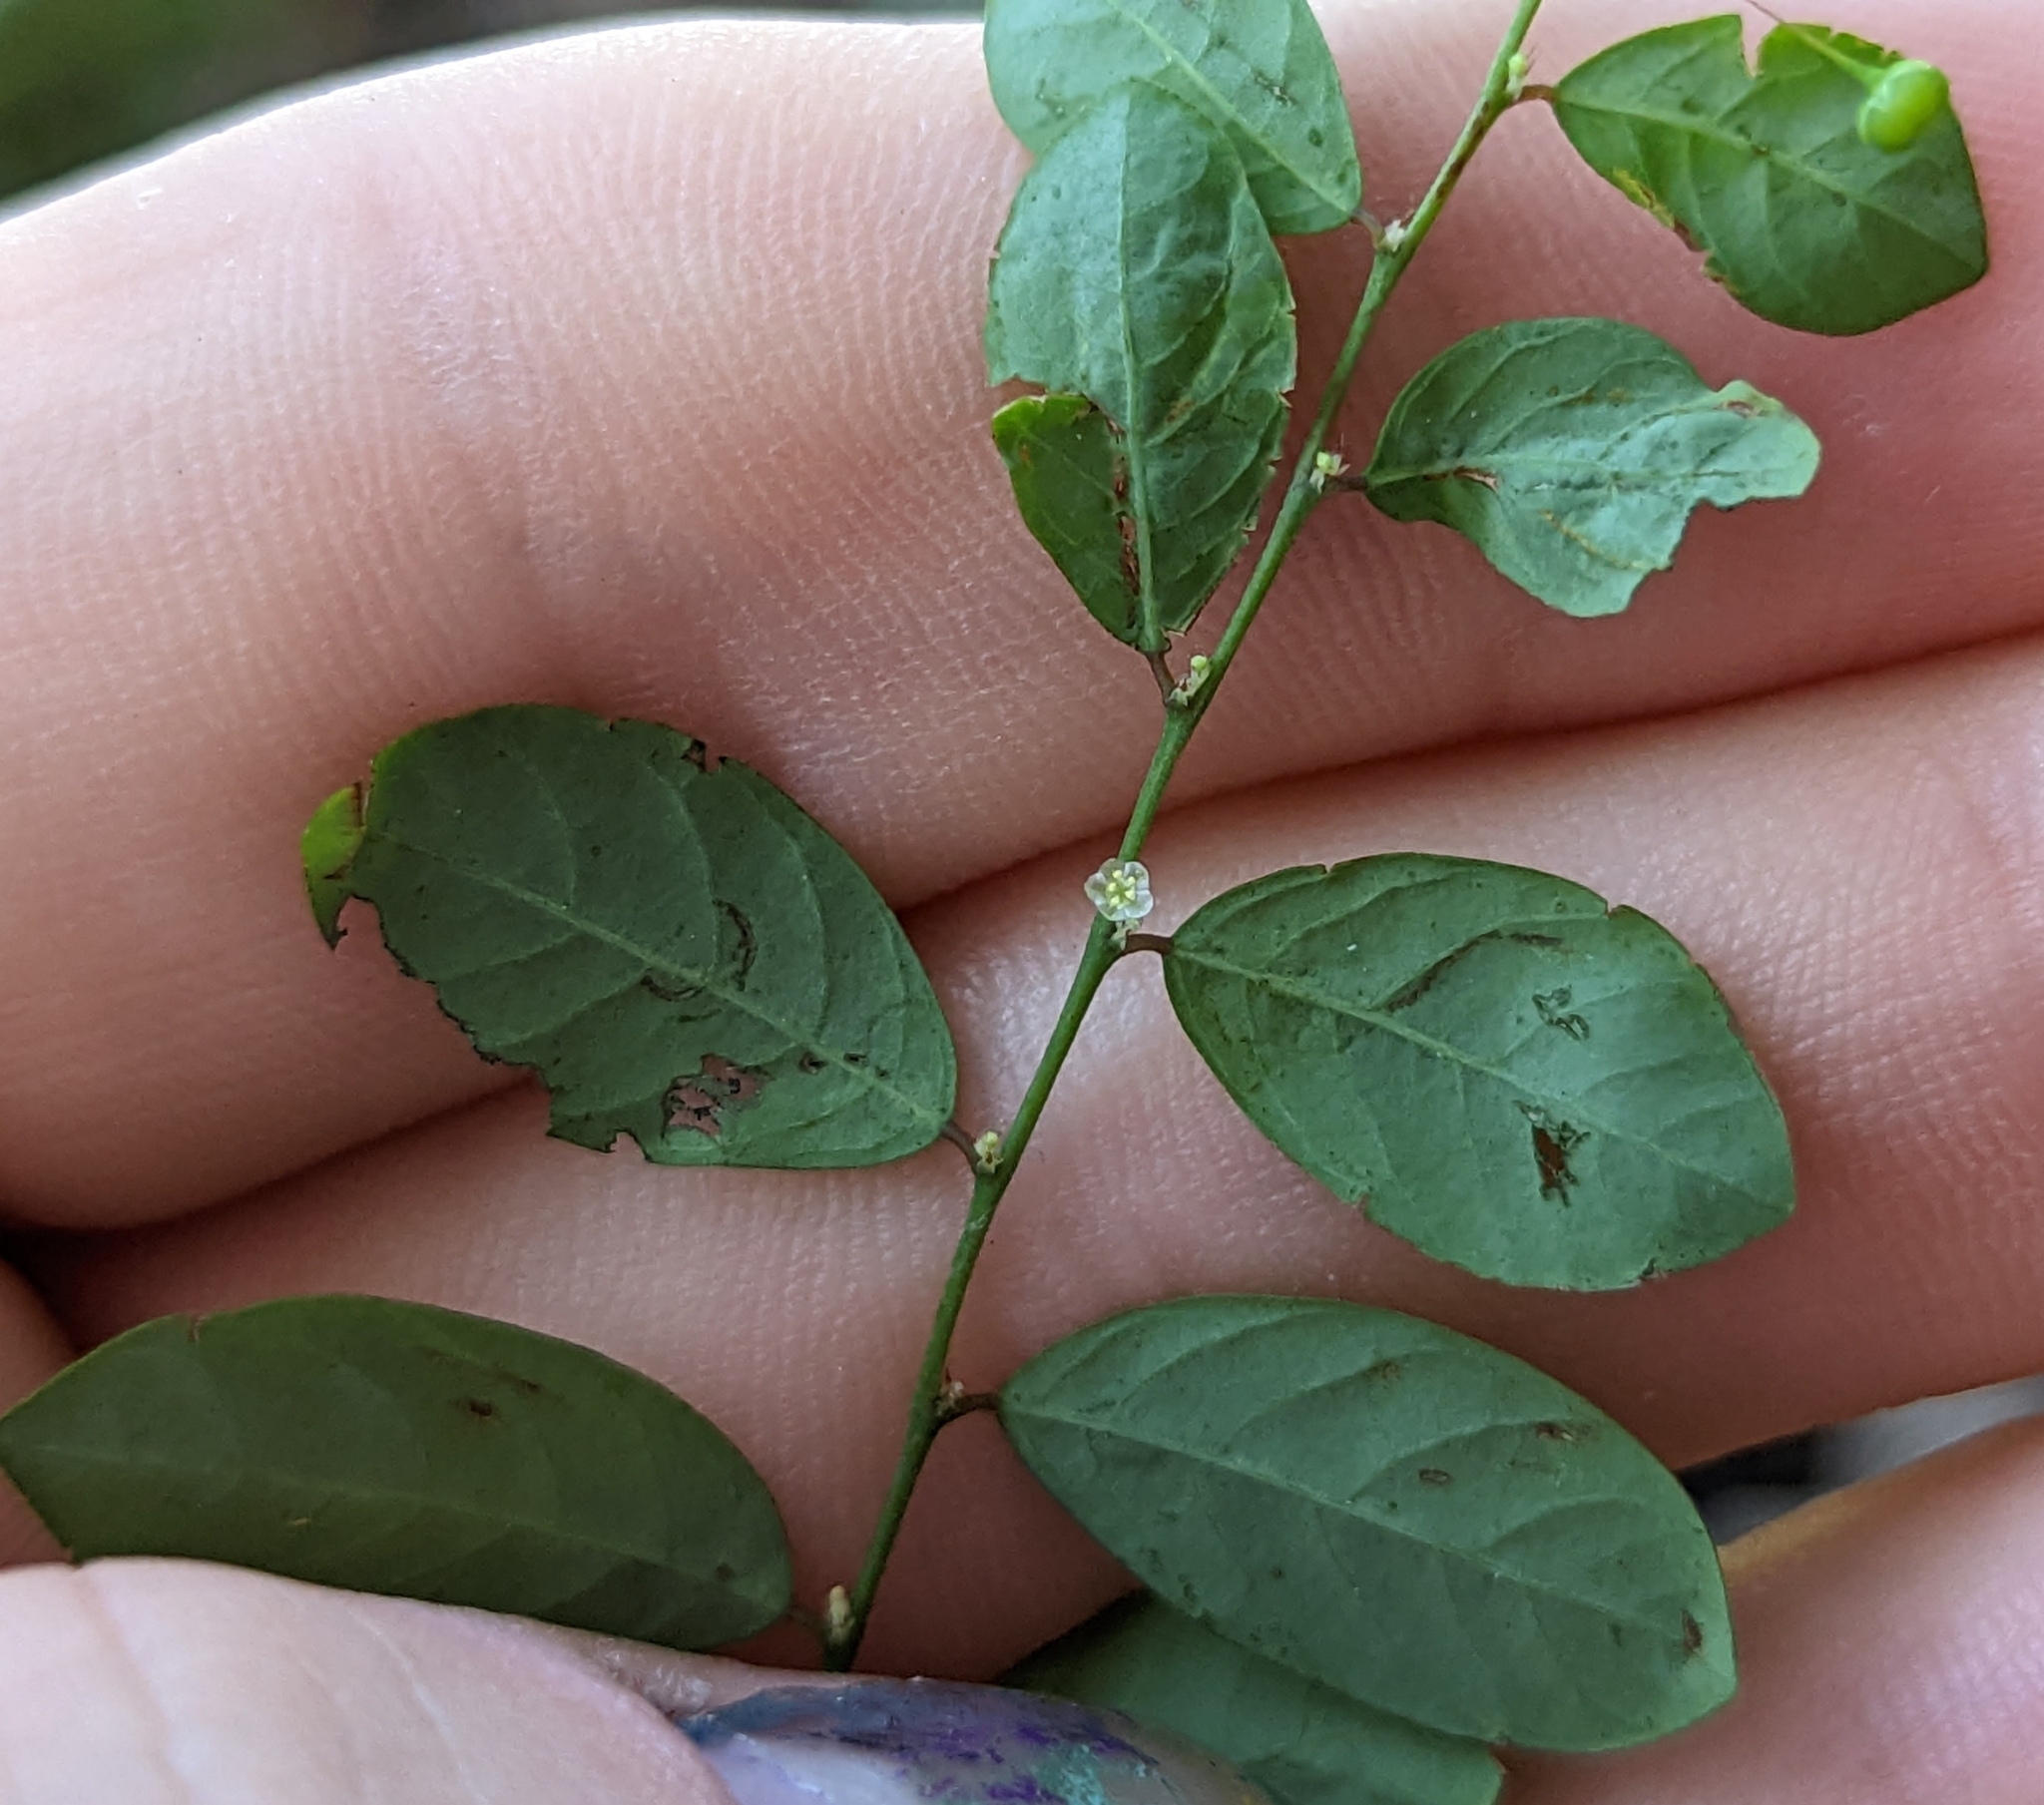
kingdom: Plantae
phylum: Tracheophyta
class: Magnoliopsida
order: Malpighiales
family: Phyllanthaceae
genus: Phyllanthus
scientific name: Phyllanthus tenellus
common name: Mascarene island leaf-flower
